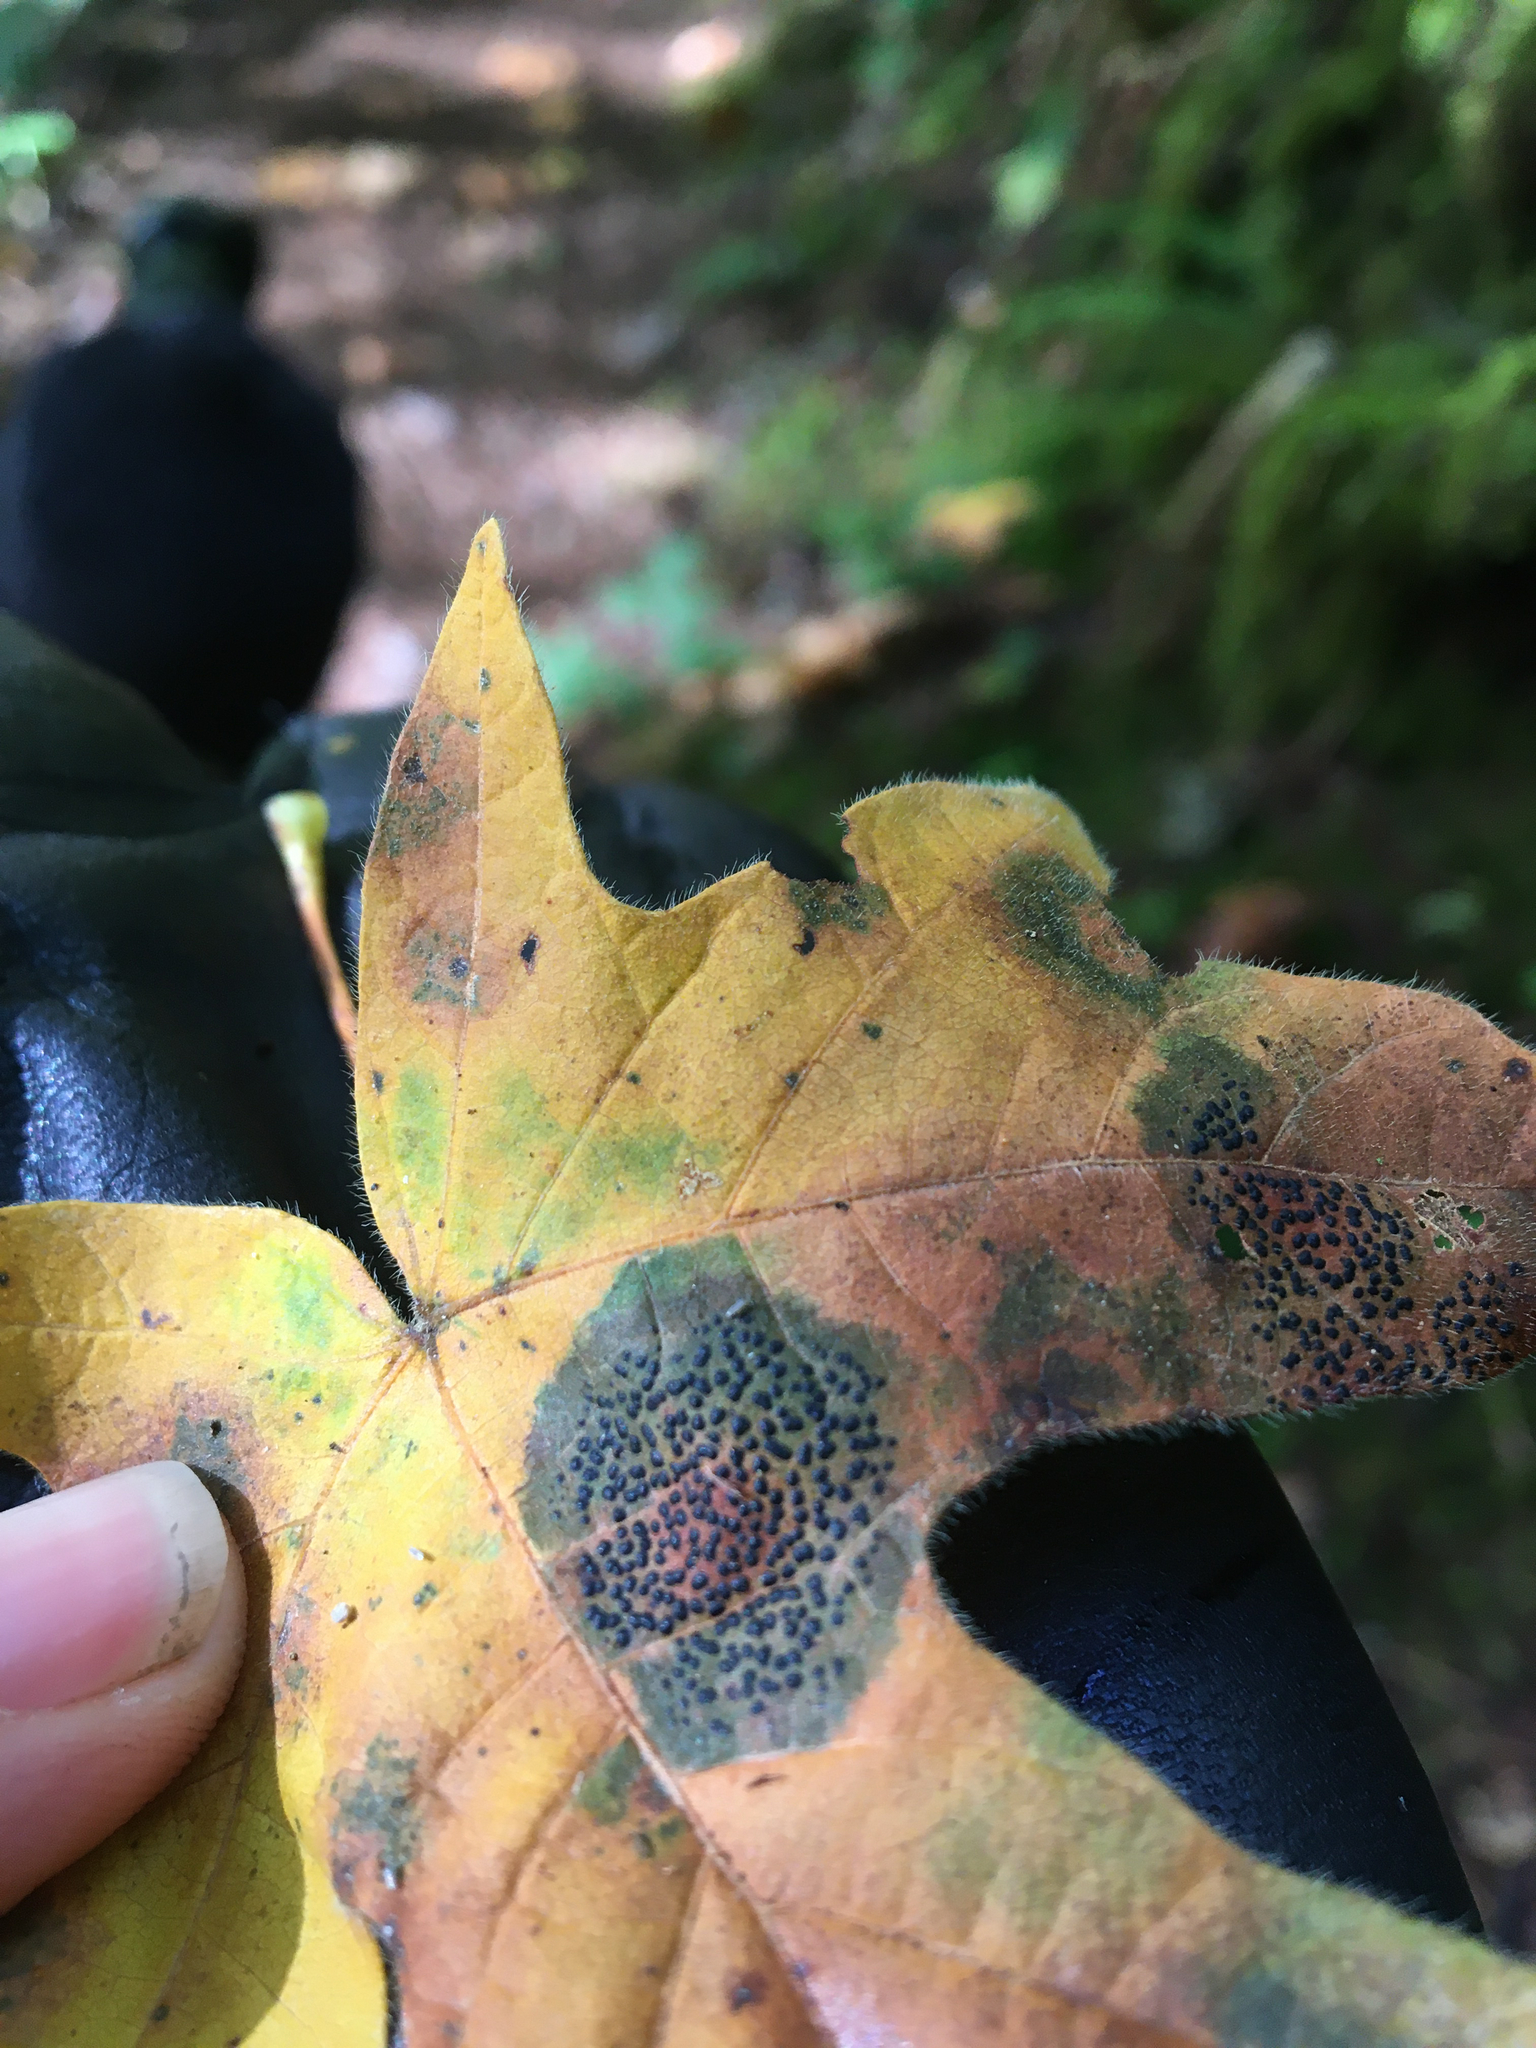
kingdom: Fungi
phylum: Ascomycota
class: Leotiomycetes
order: Rhytismatales
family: Rhytismataceae
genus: Rhytisma
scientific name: Rhytisma punctatum
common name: Speckled tar spot
